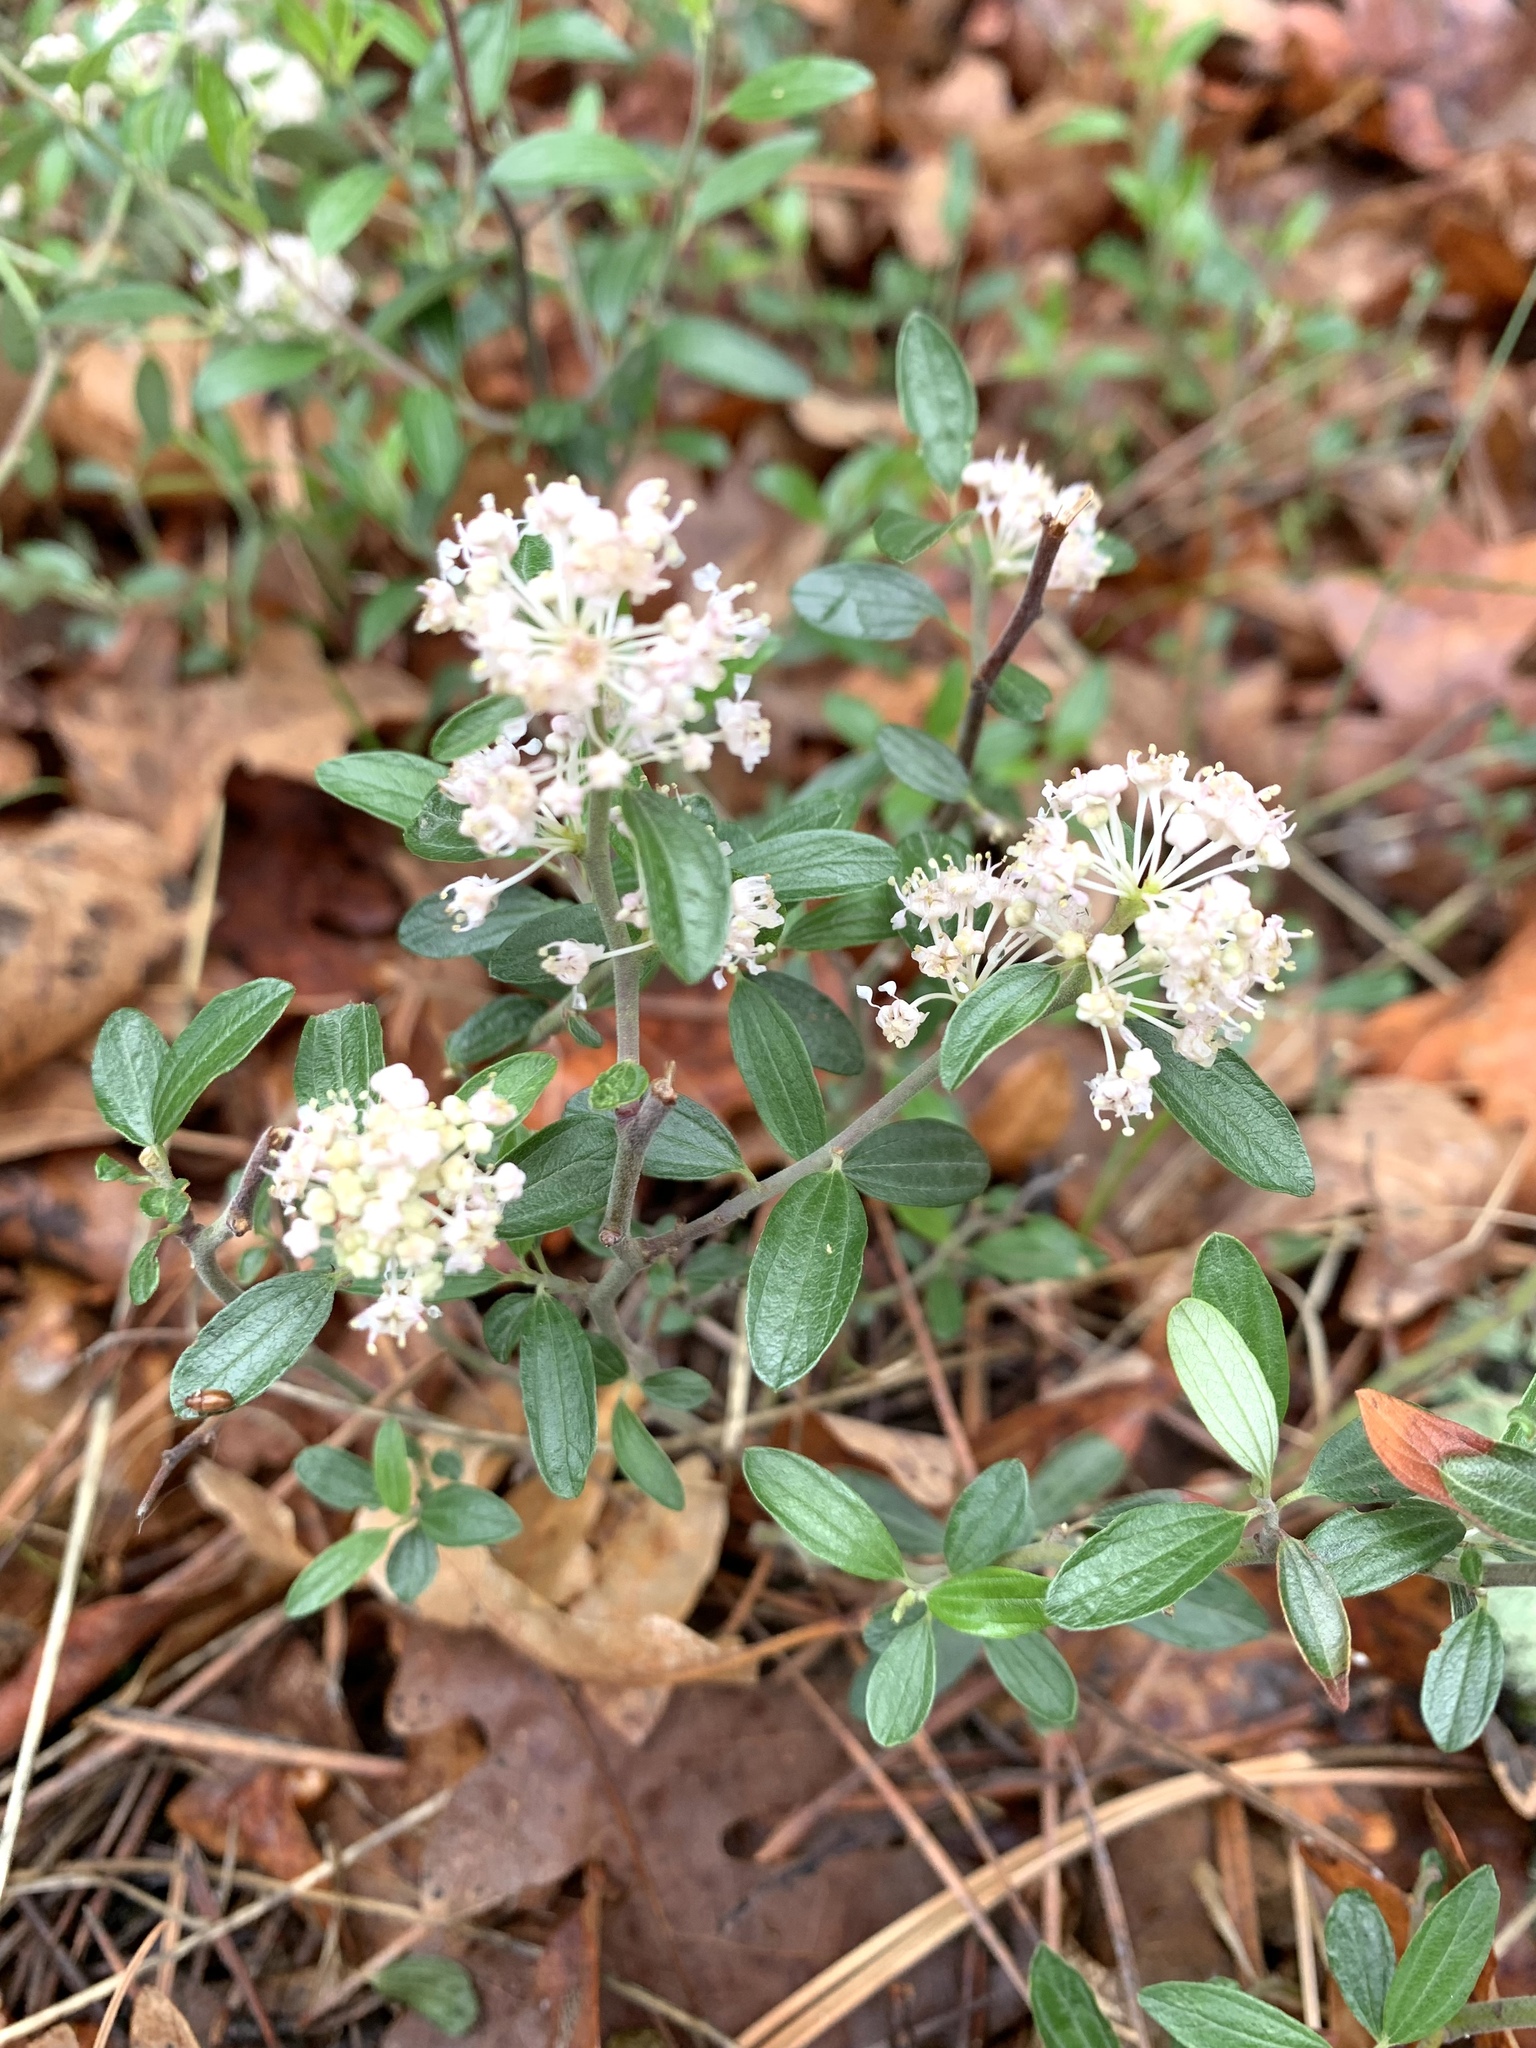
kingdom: Plantae
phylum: Tracheophyta
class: Magnoliopsida
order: Rosales
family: Rhamnaceae
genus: Ceanothus
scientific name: Ceanothus fendleri
